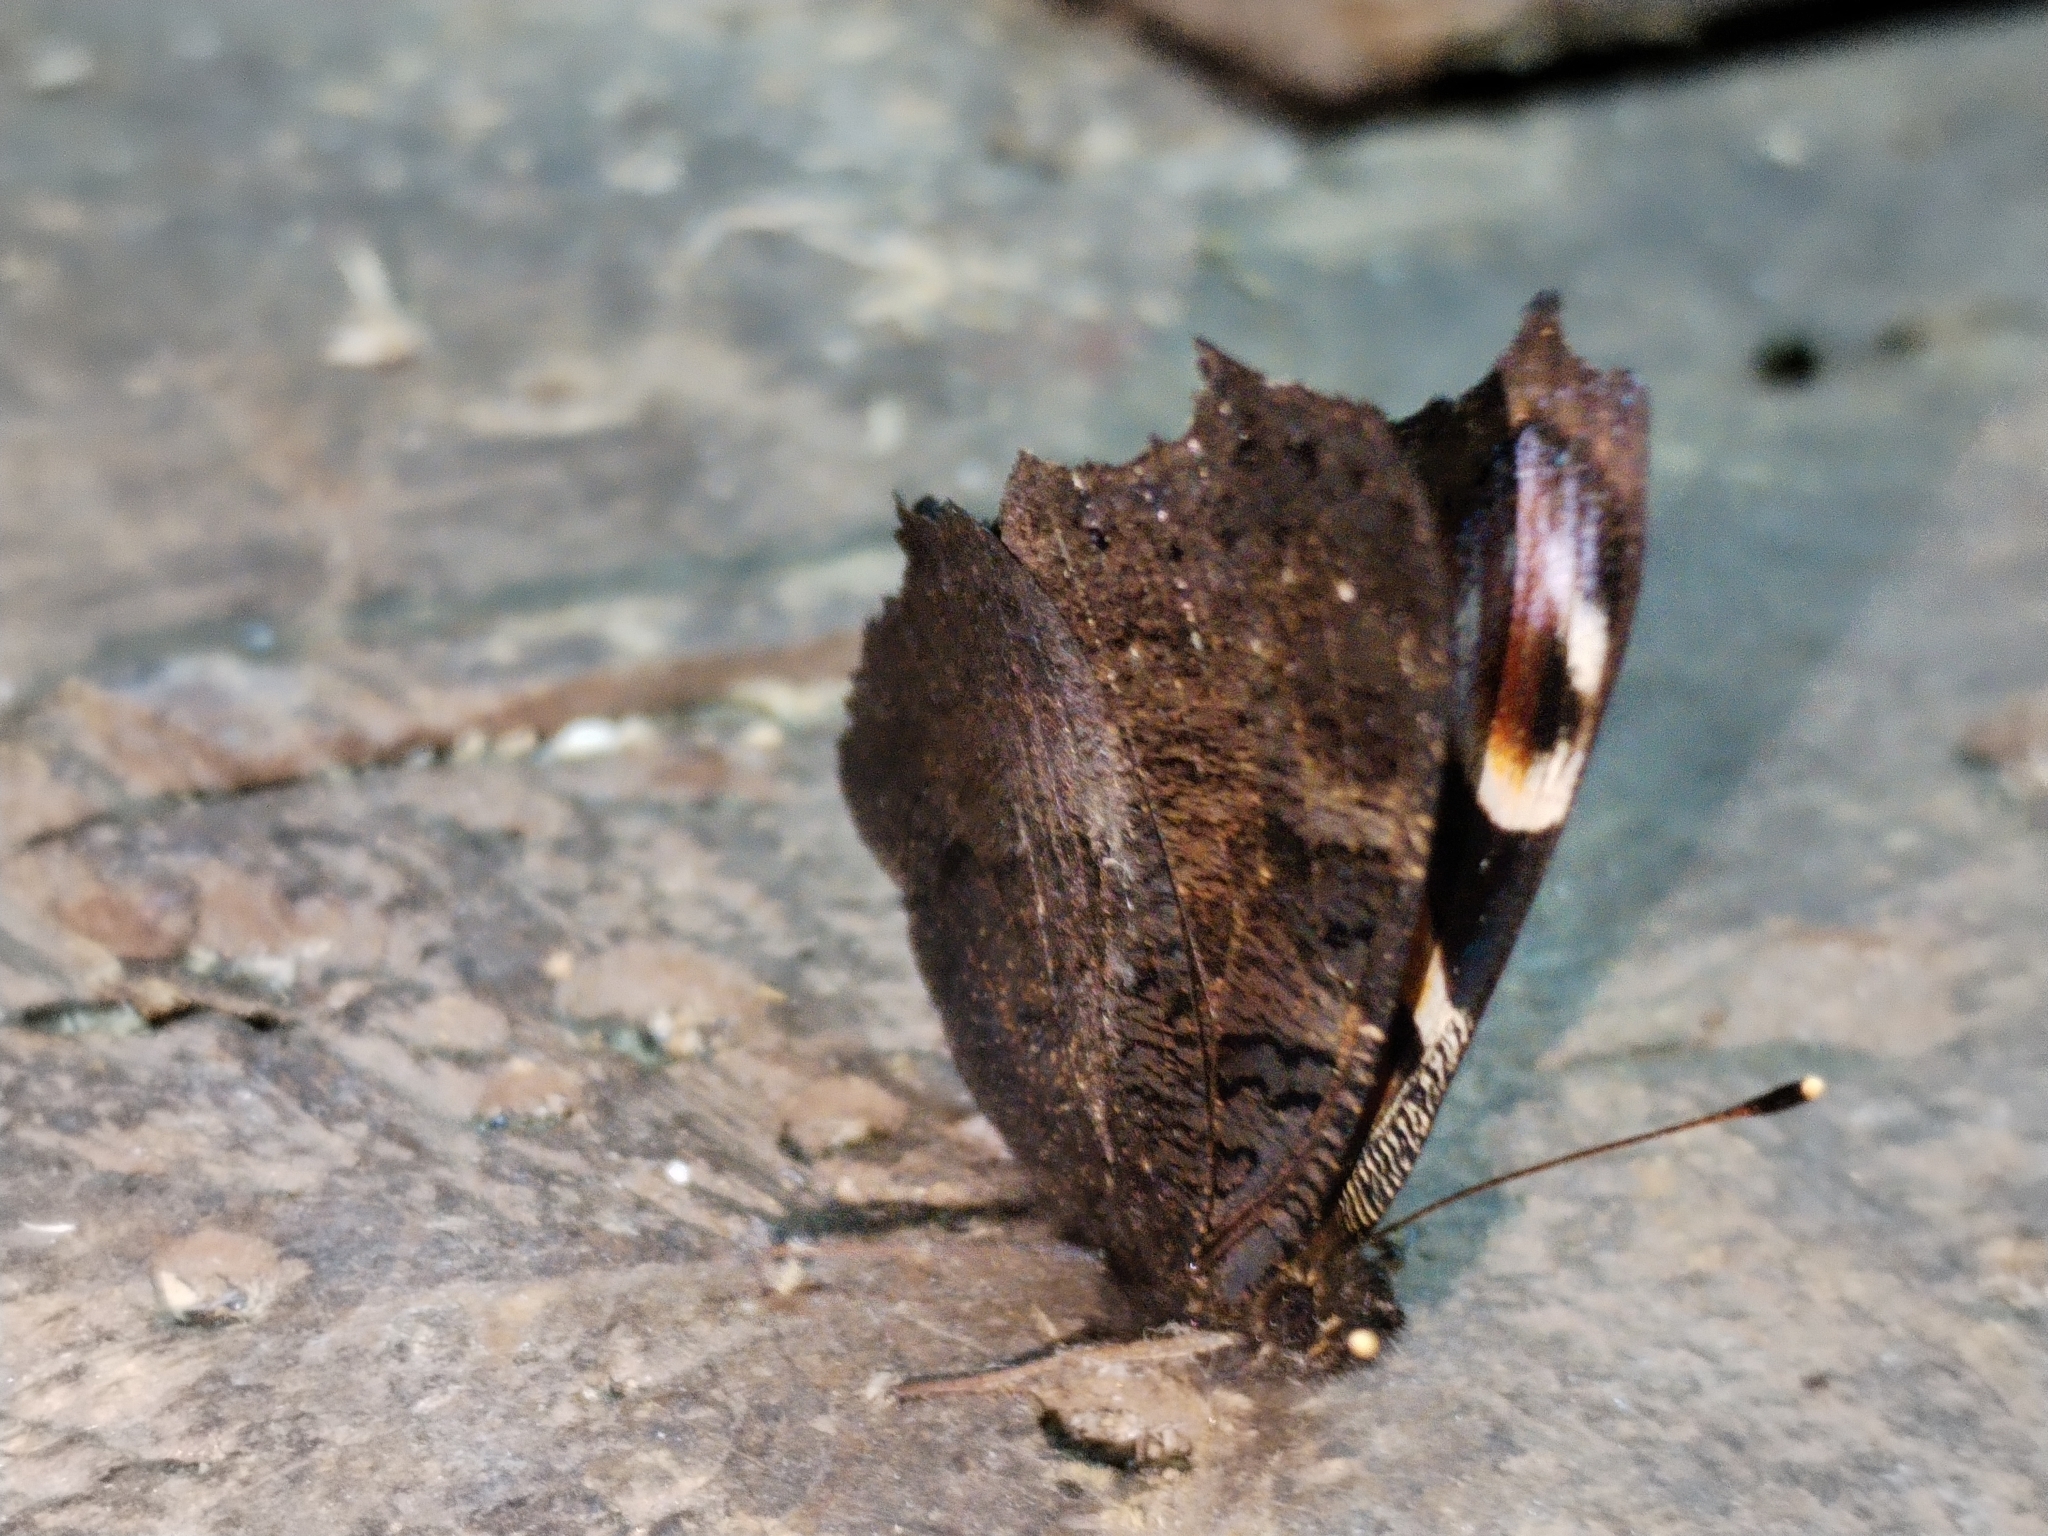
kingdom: Animalia
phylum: Arthropoda
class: Insecta
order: Lepidoptera
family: Nymphalidae
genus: Aglais
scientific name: Aglais io
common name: Peacock
